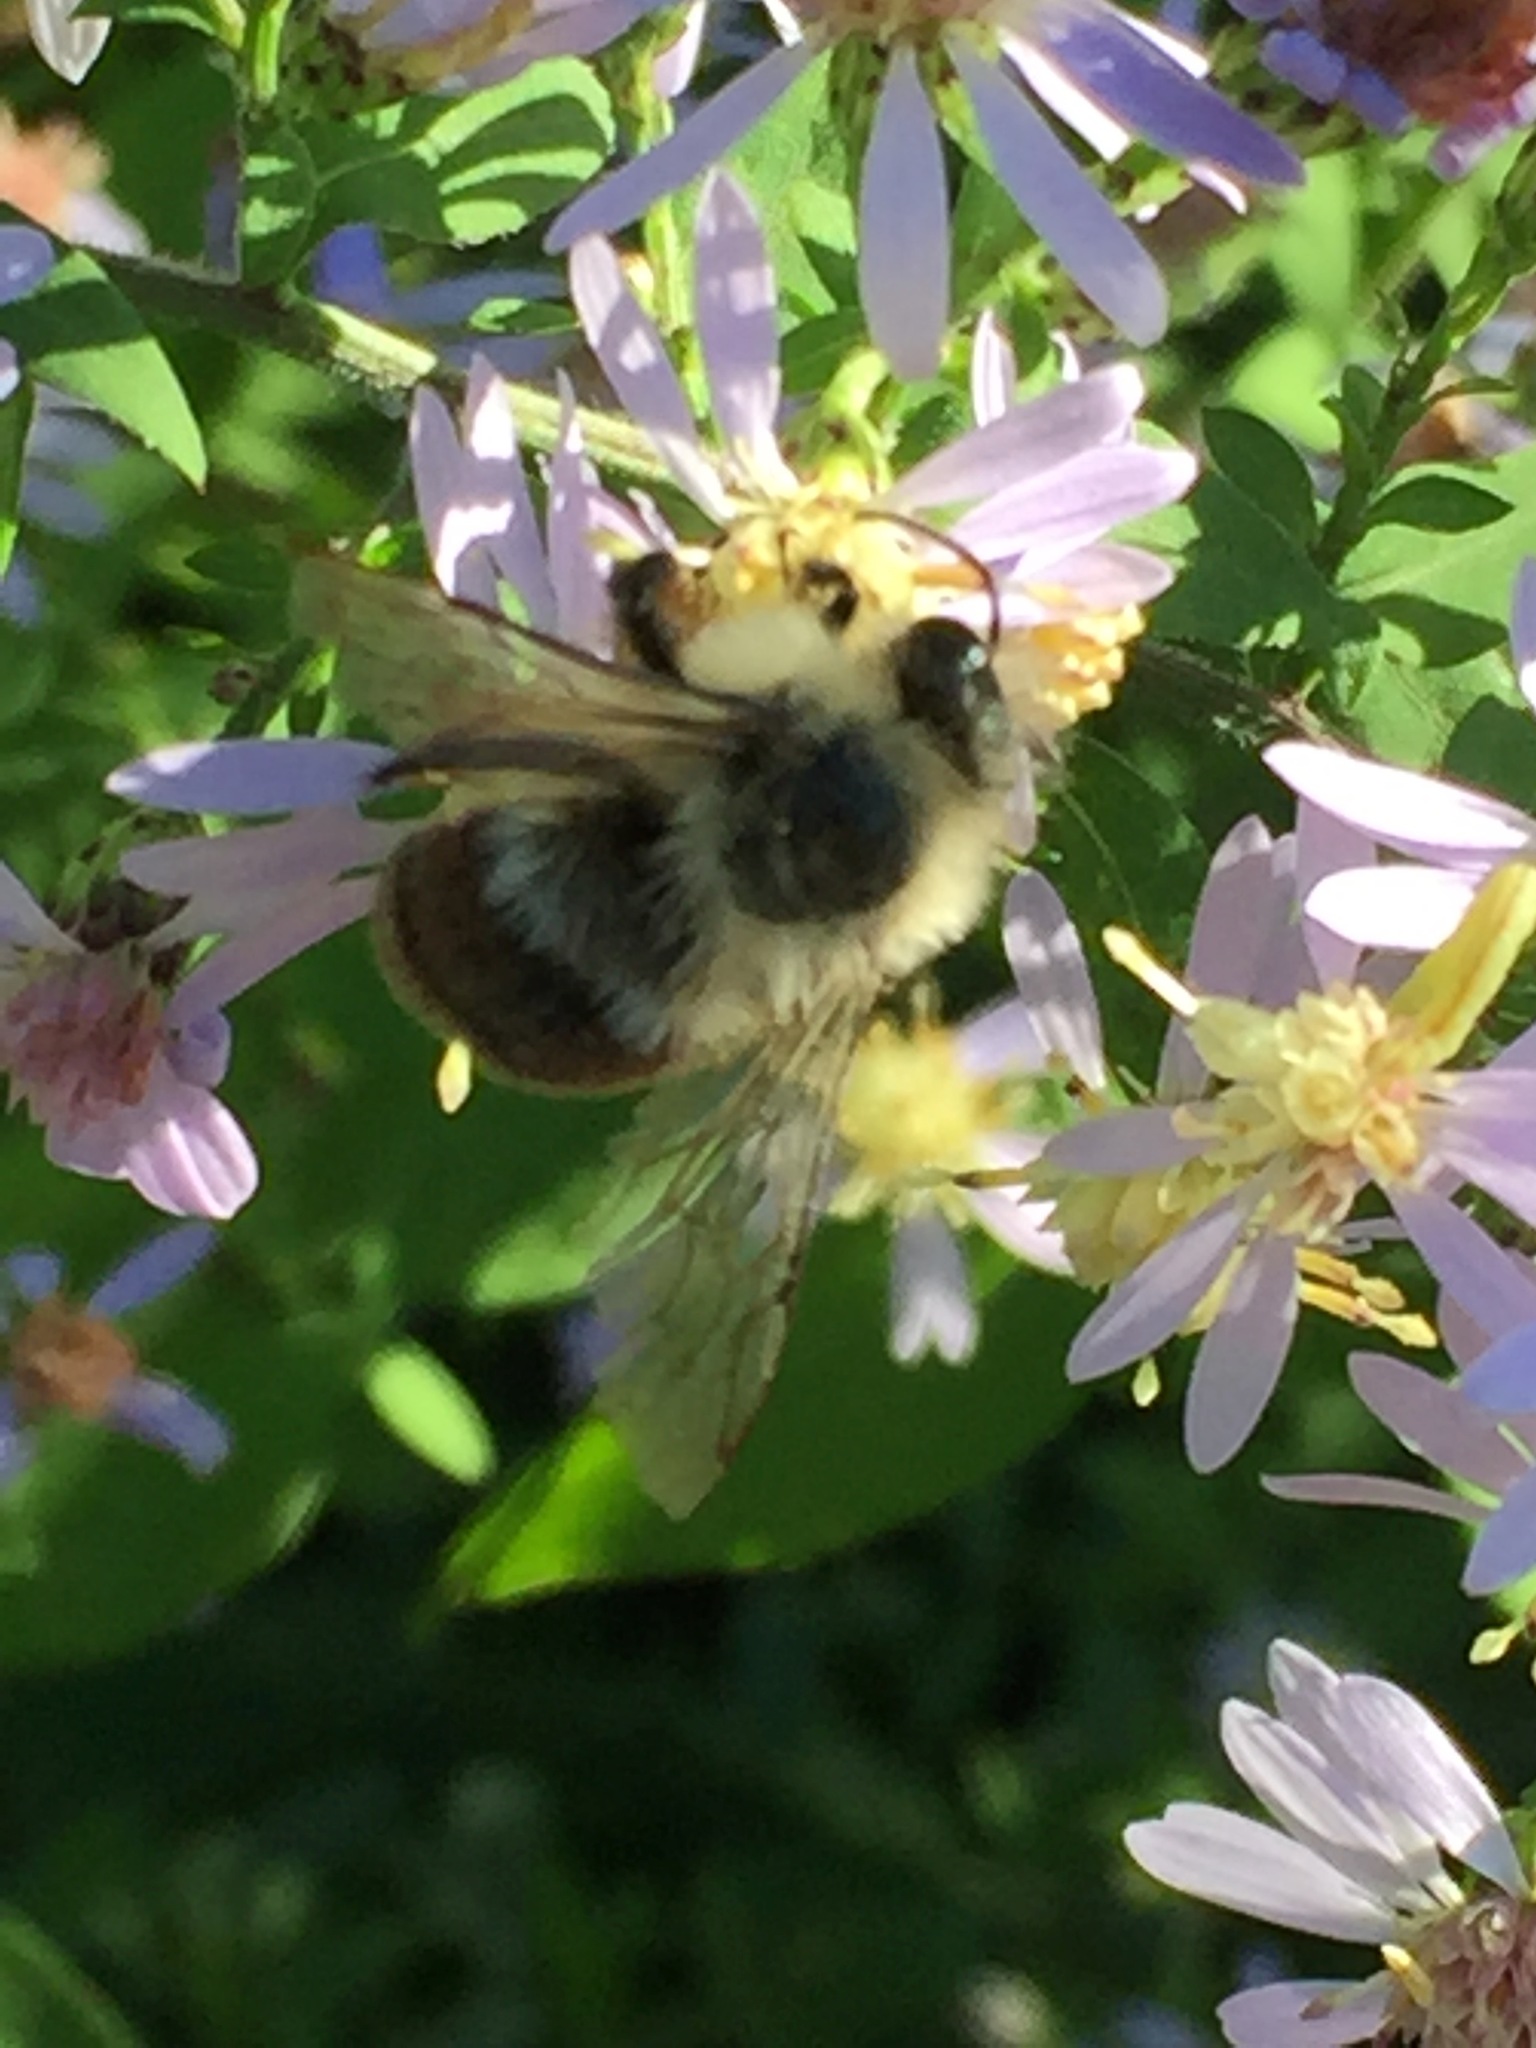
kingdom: Animalia
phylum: Arthropoda
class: Insecta
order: Hymenoptera
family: Apidae
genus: Bombus
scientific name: Bombus impatiens
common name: Common eastern bumble bee
